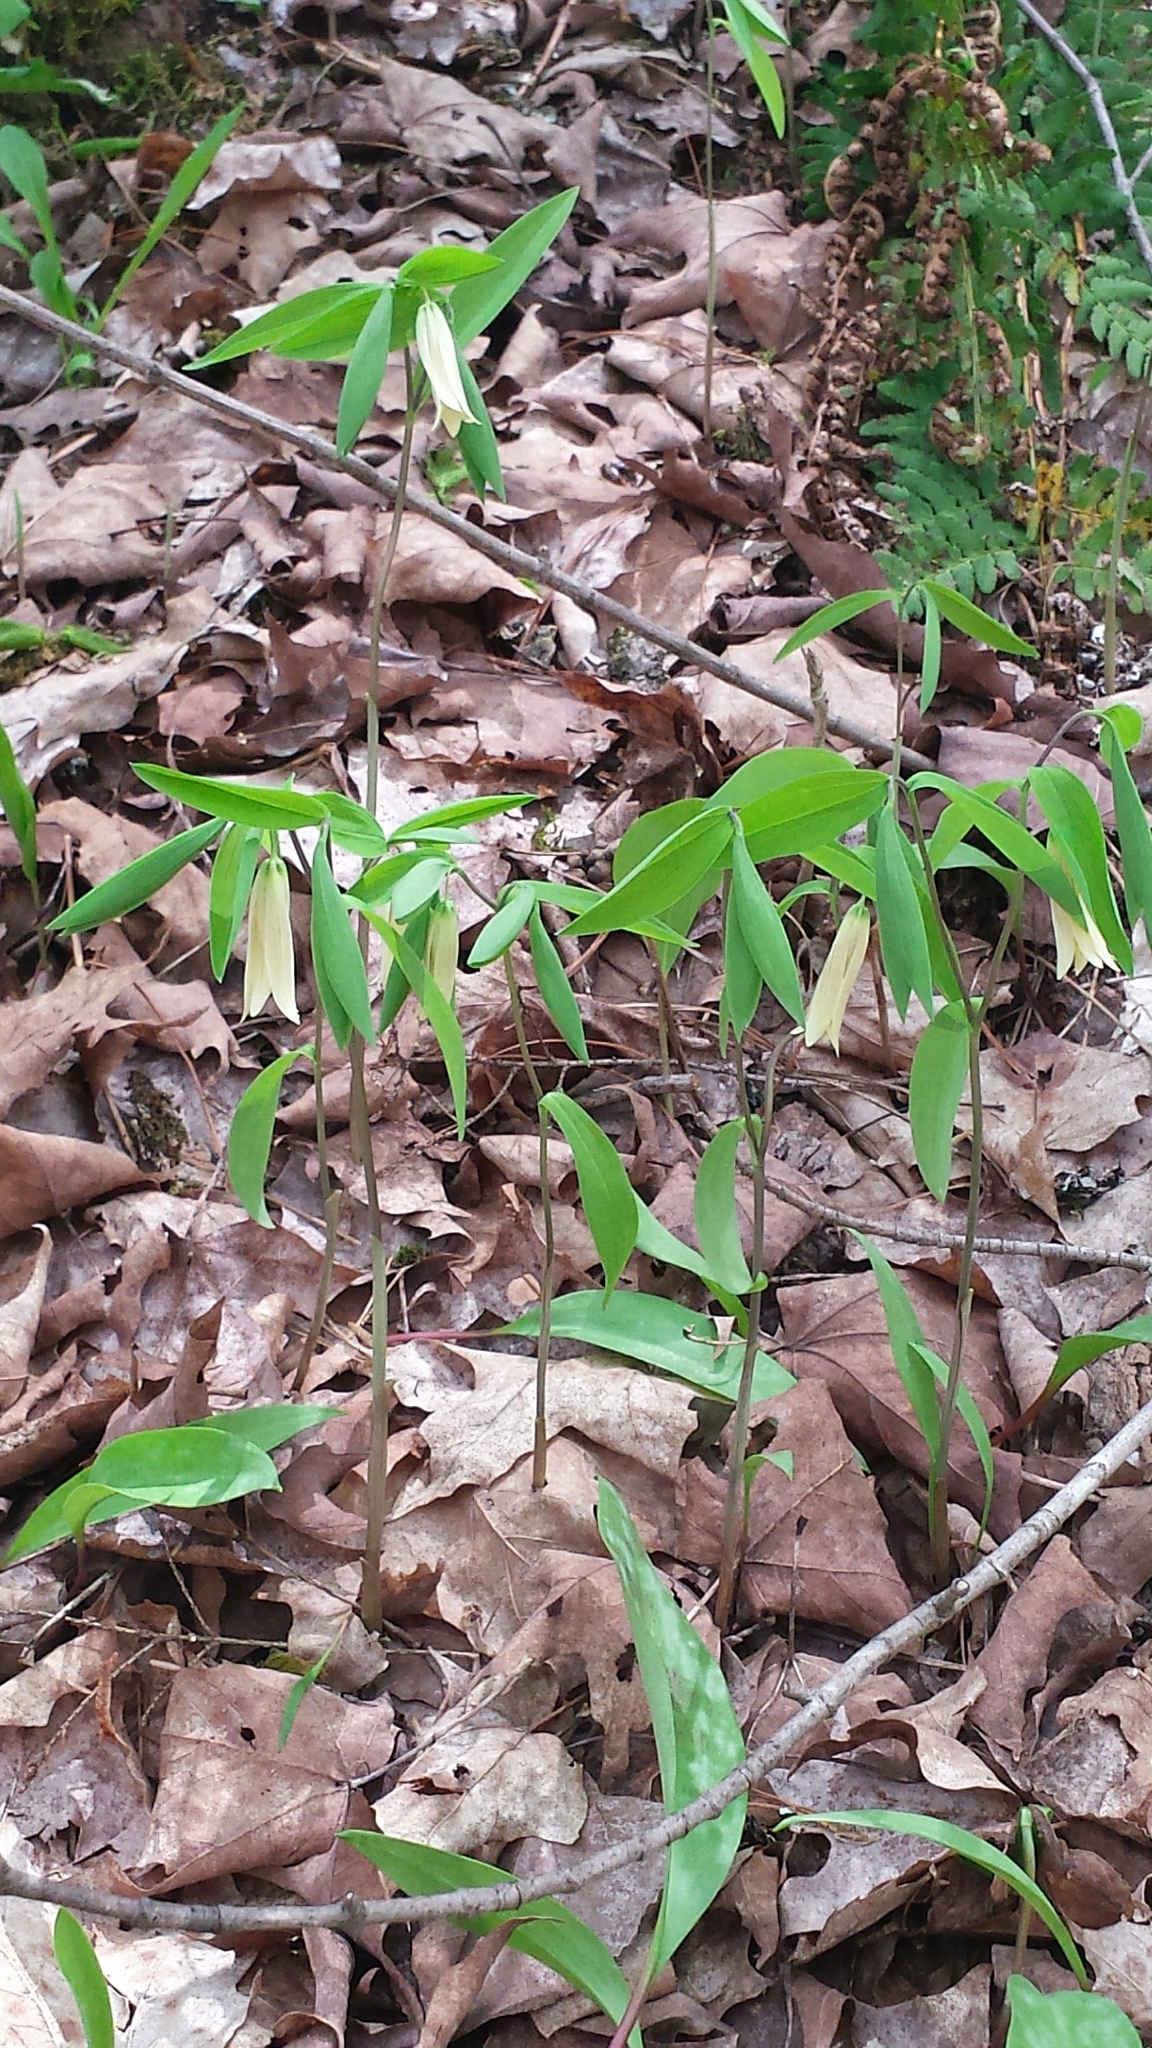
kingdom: Plantae
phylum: Tracheophyta
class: Liliopsida
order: Liliales
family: Colchicaceae
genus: Uvularia
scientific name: Uvularia sessilifolia
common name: Straw-lily
